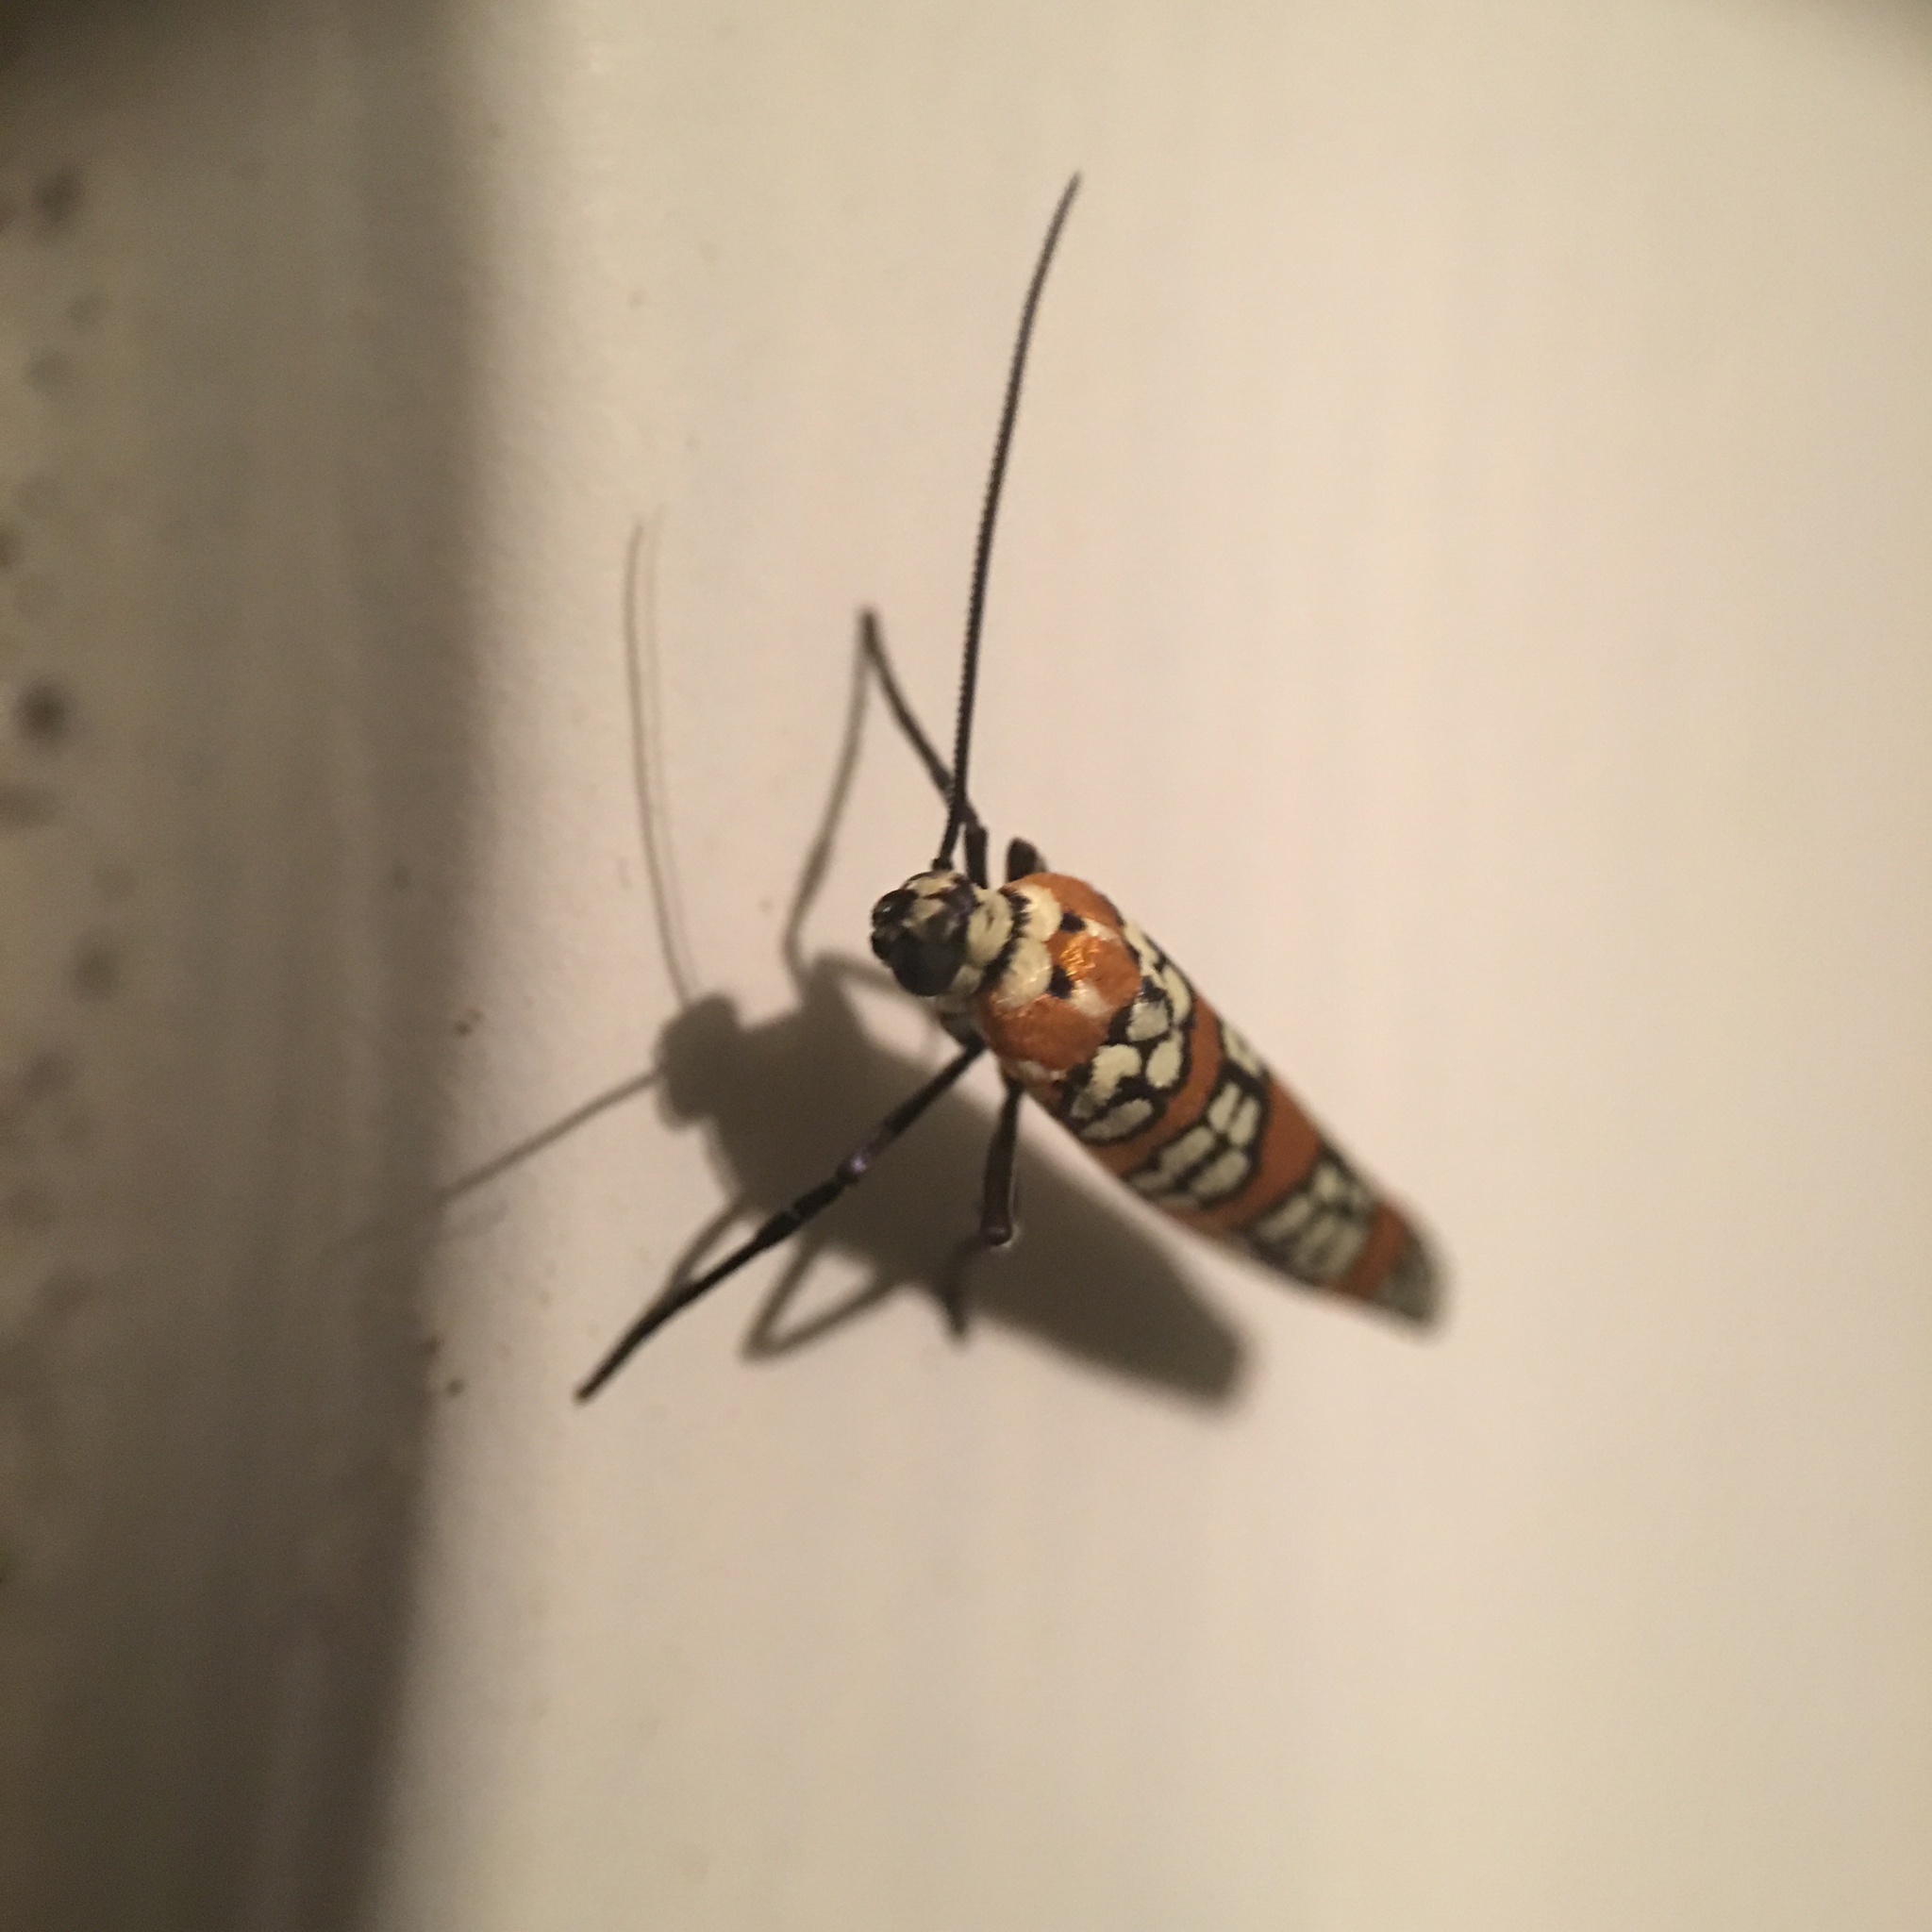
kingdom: Animalia
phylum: Arthropoda
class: Insecta
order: Lepidoptera
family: Attevidae
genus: Atteva
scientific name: Atteva punctella
